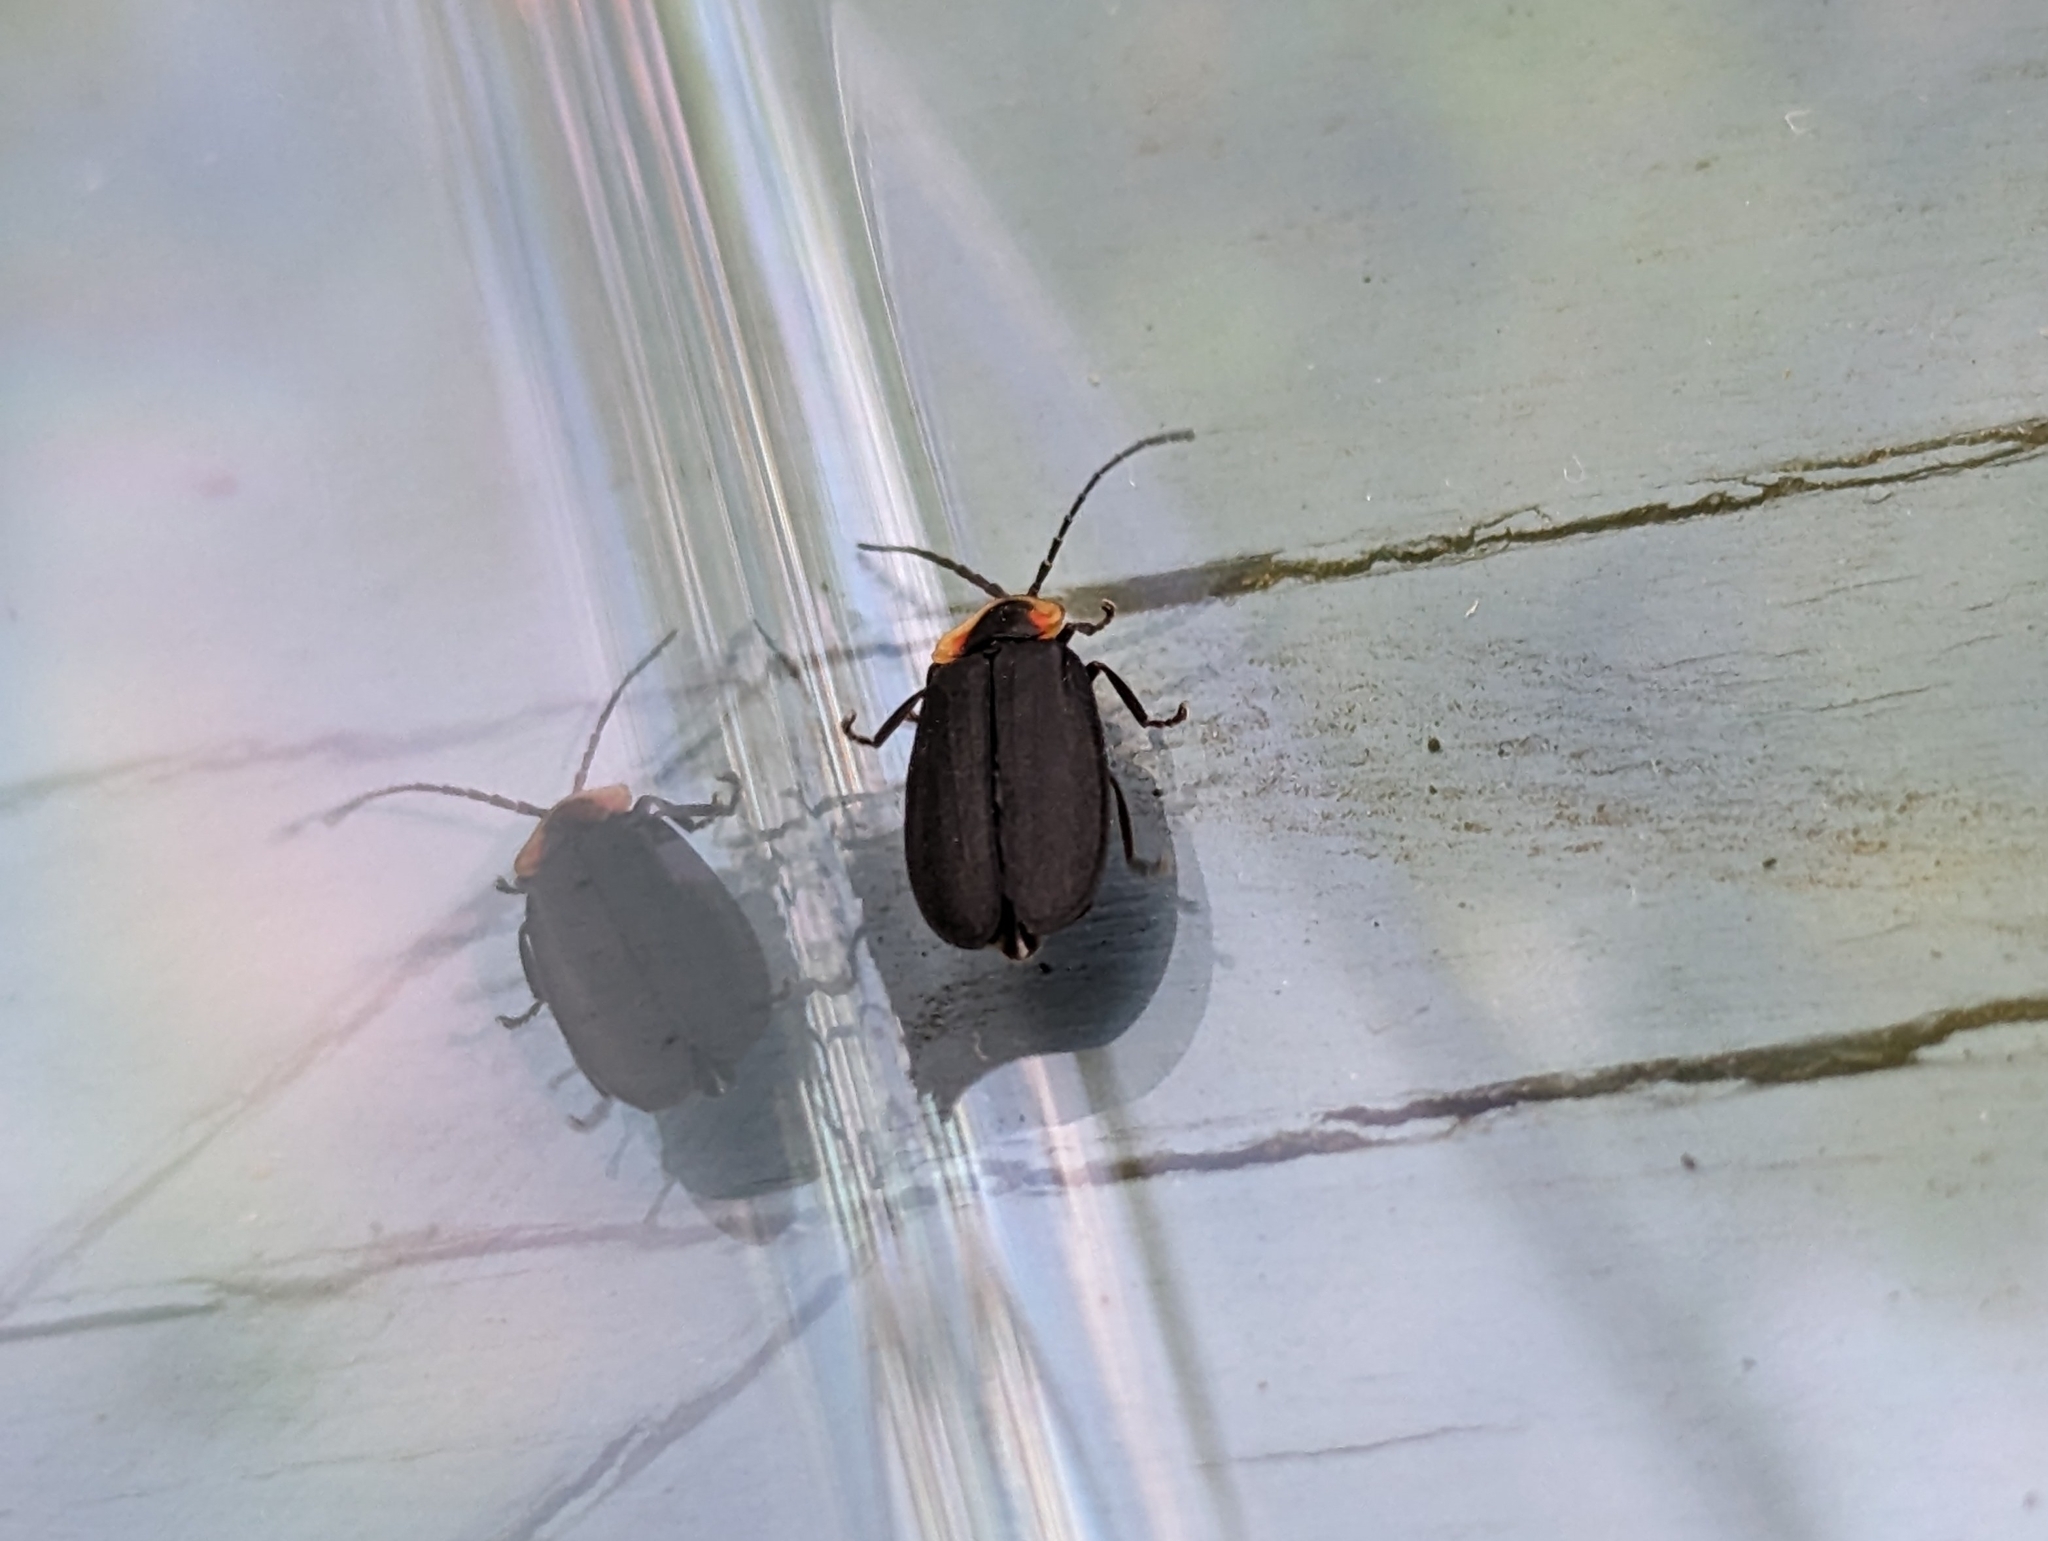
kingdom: Animalia
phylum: Arthropoda
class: Insecta
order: Coleoptera
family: Lampyridae
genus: Lucidota
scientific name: Lucidota atra
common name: Black firefly
